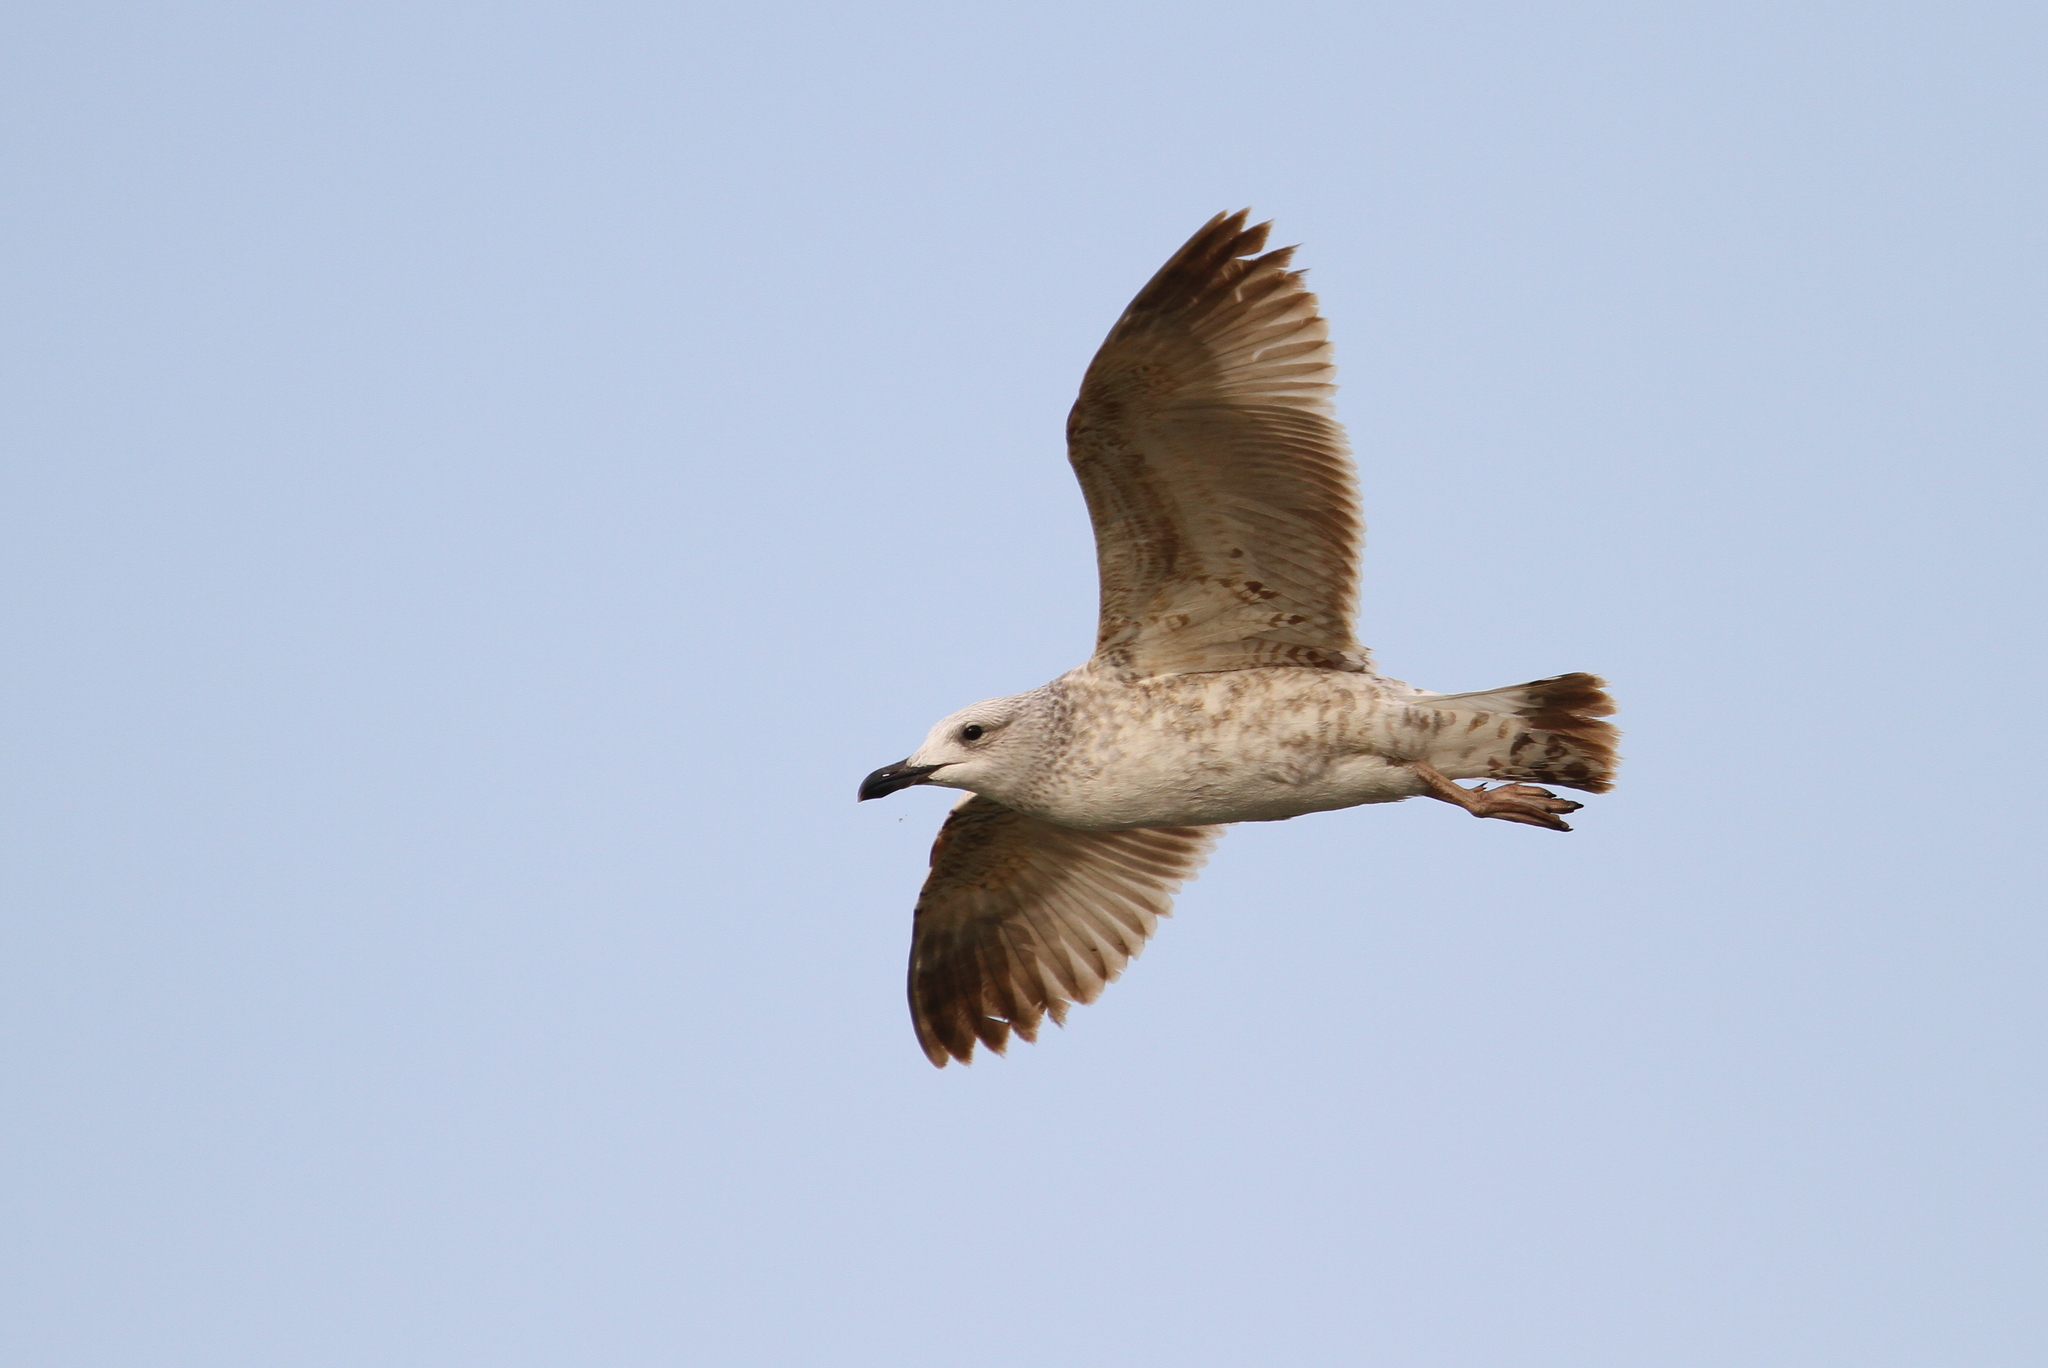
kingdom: Animalia
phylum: Chordata
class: Aves
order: Charadriiformes
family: Laridae
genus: Larus
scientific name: Larus armenicus
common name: Armenian gull
